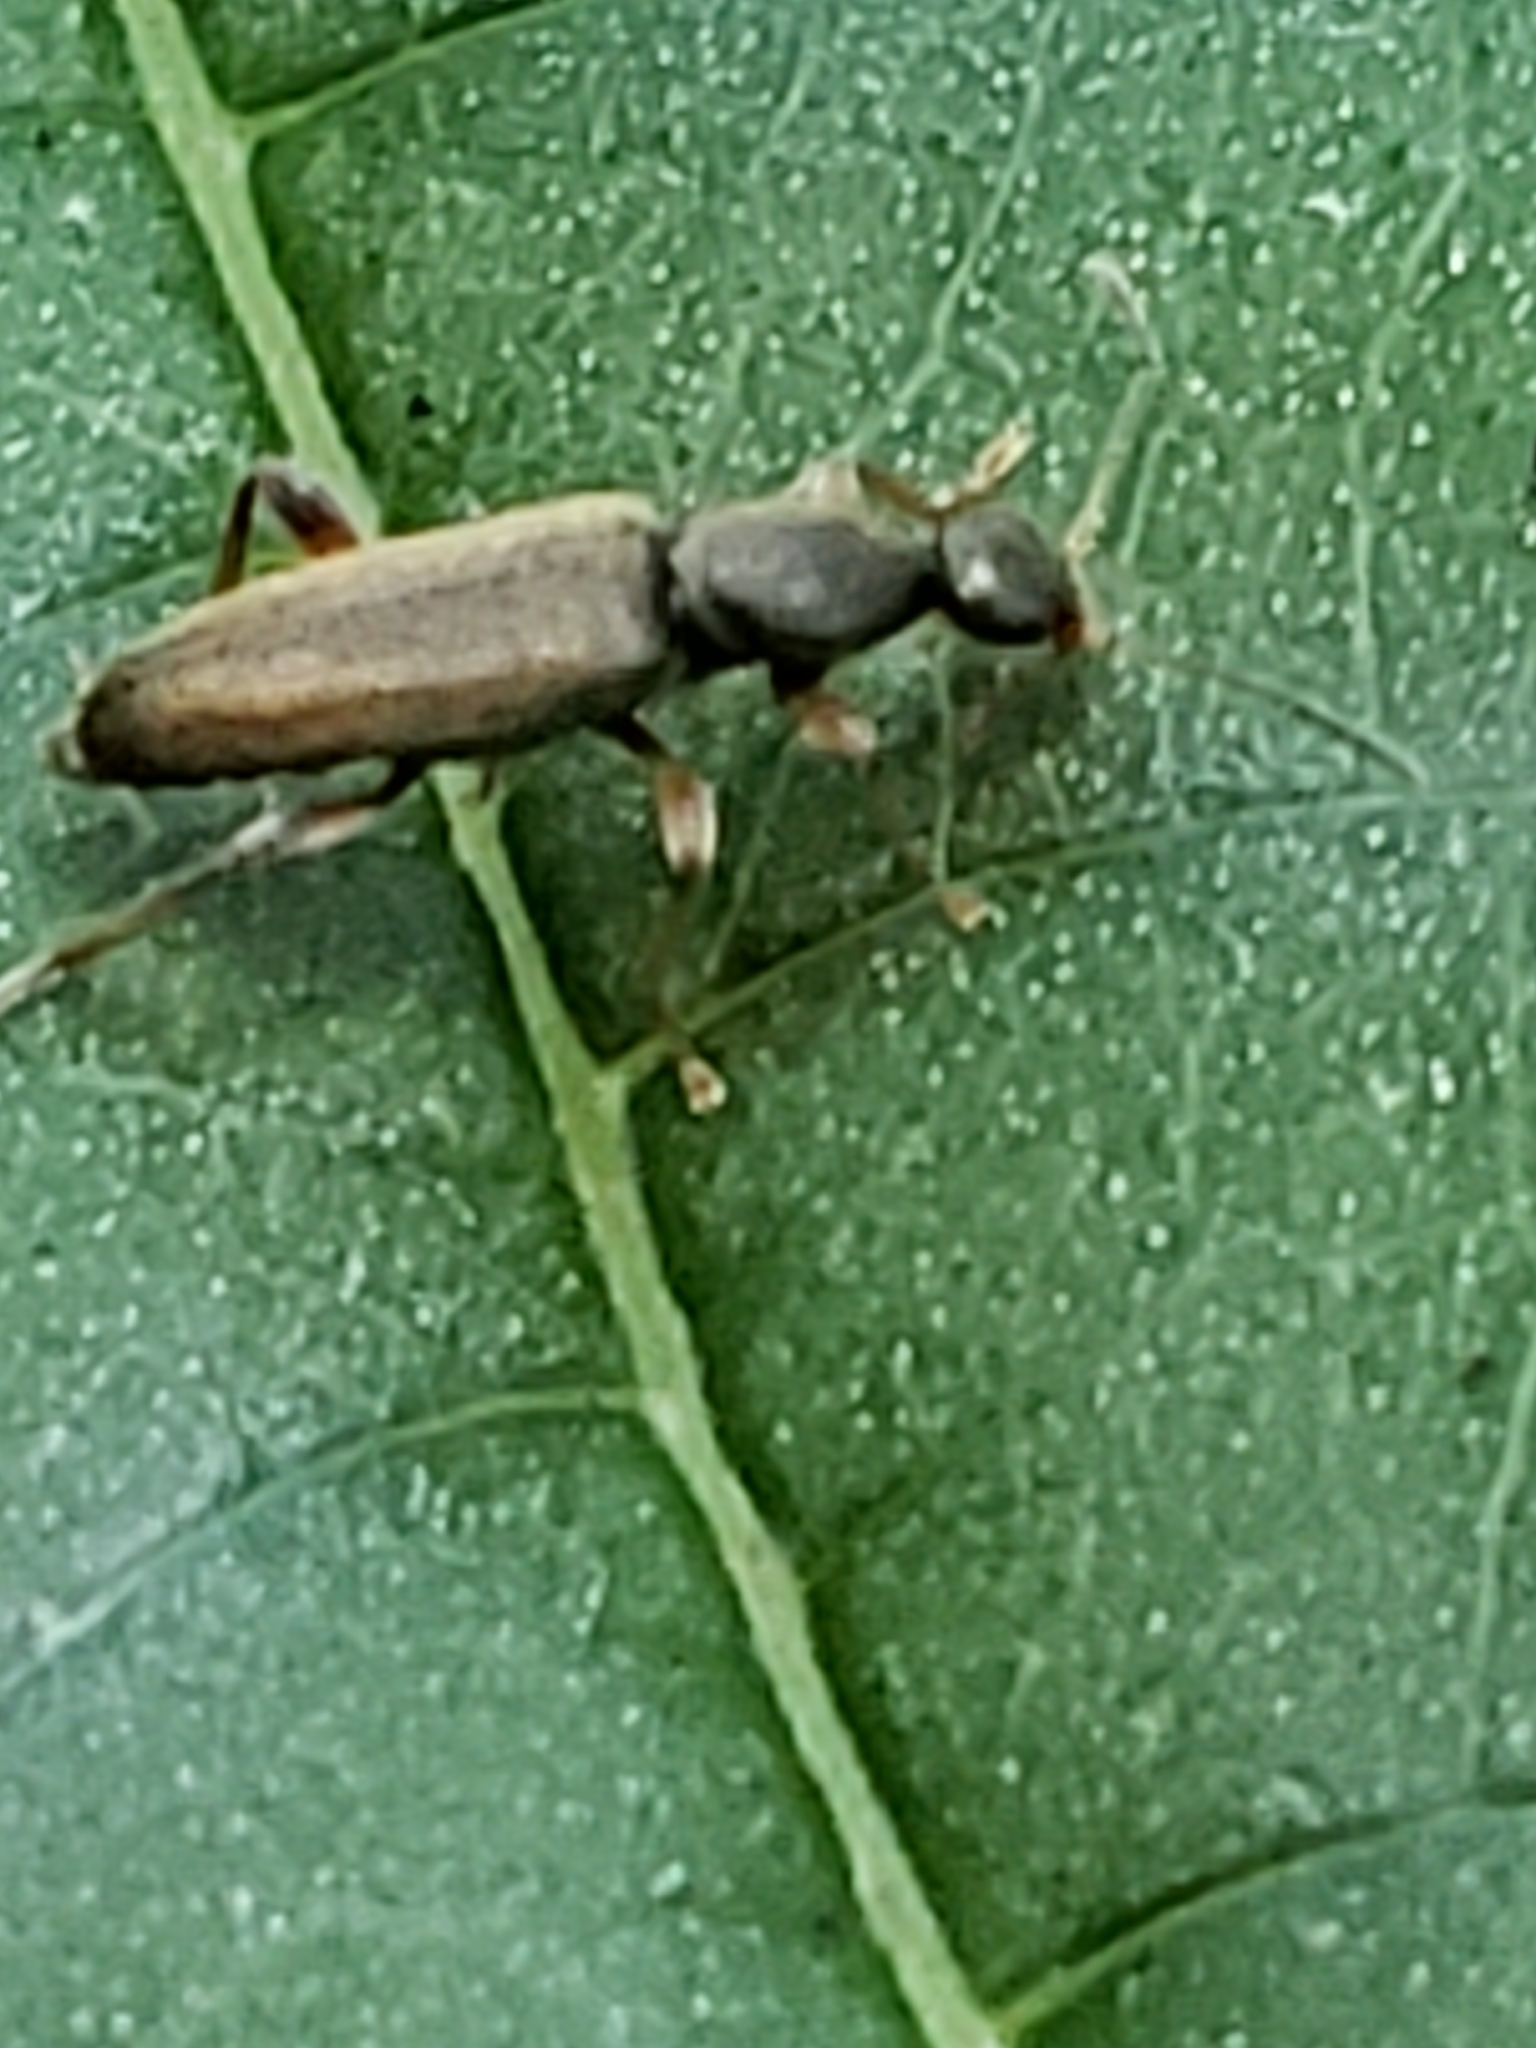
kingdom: Animalia
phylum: Arthropoda
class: Insecta
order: Coleoptera
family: Anthicidae
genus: Macratria
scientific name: Macratria murina
